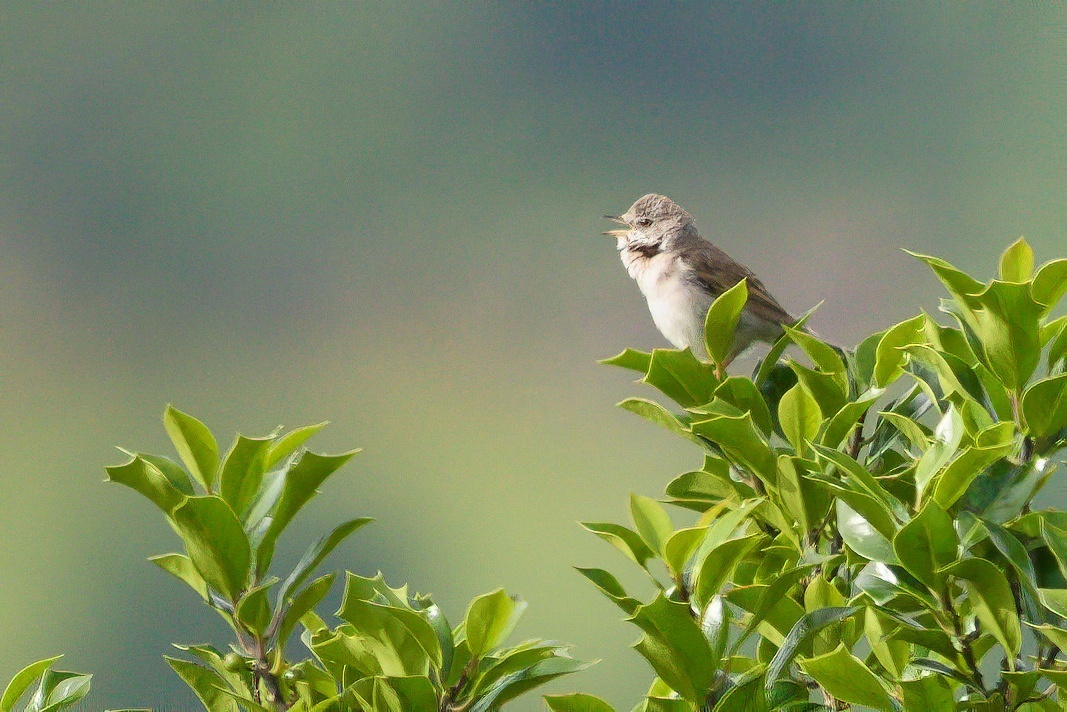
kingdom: Animalia
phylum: Chordata
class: Aves
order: Passeriformes
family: Sylviidae
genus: Sylvia
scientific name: Sylvia communis
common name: Common whitethroat
